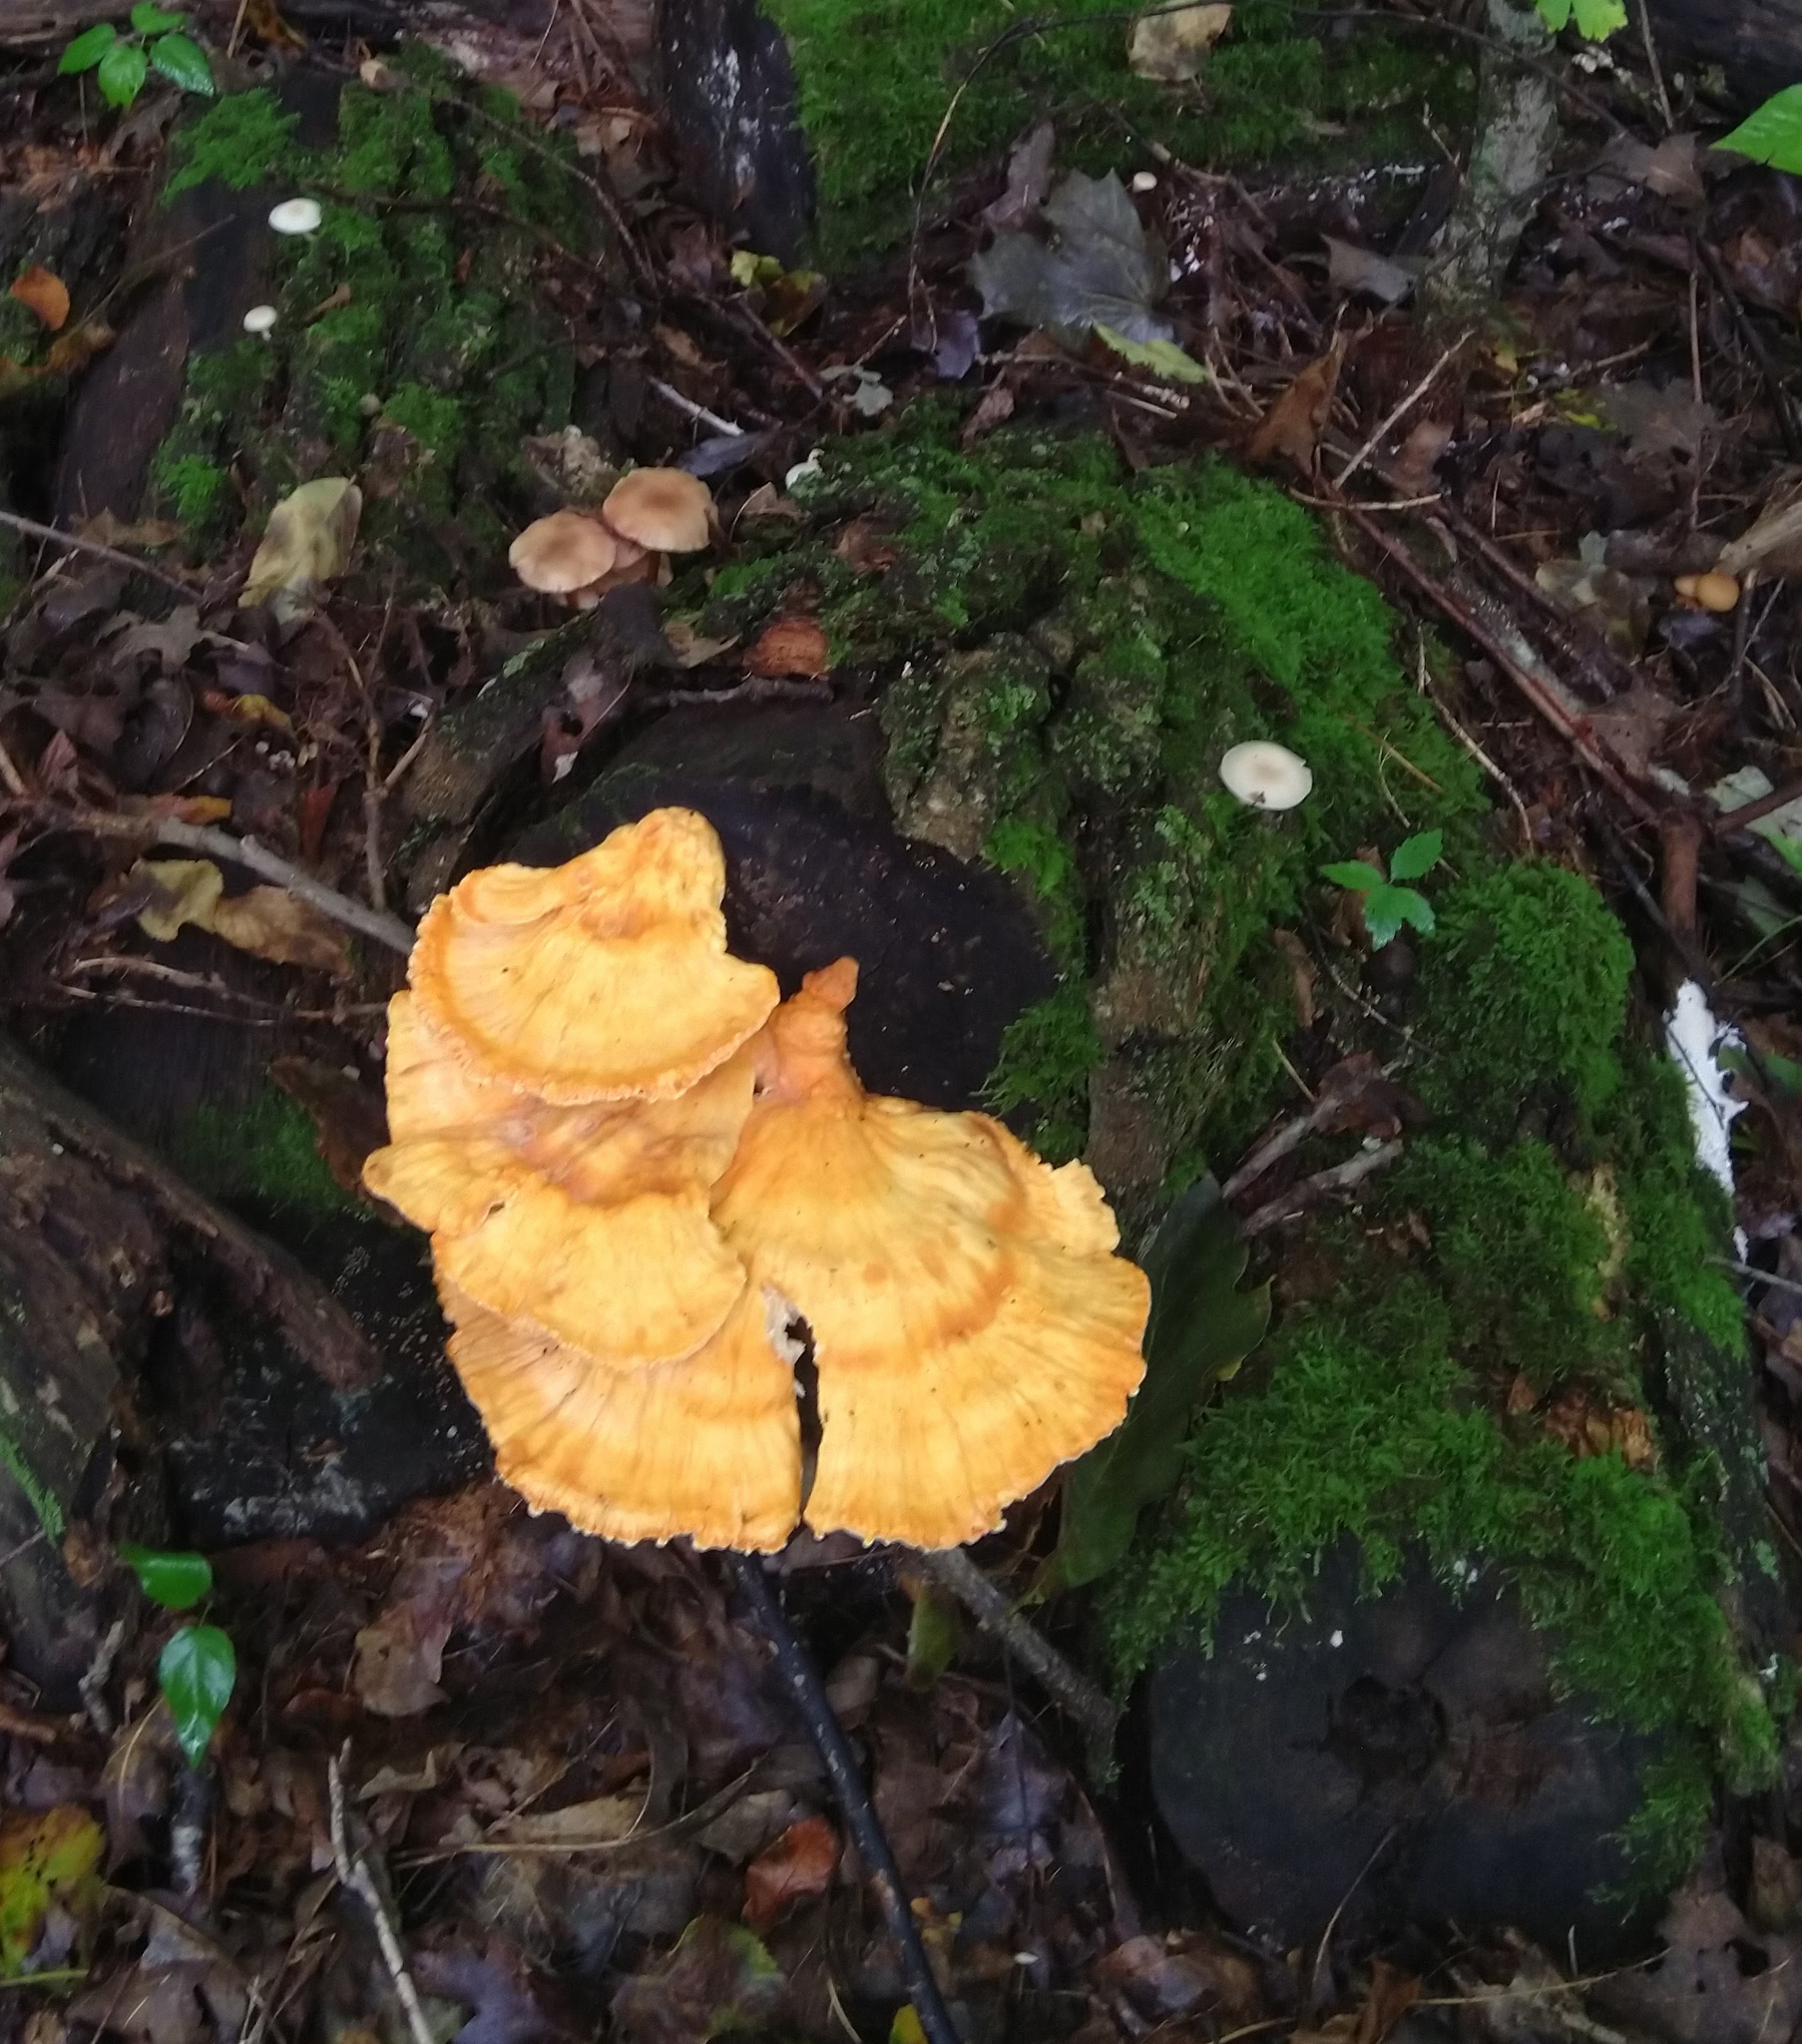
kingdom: Fungi
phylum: Basidiomycota
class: Agaricomycetes
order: Polyporales
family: Laetiporaceae
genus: Laetiporus
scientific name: Laetiporus sulphureus
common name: Chicken of the woods
